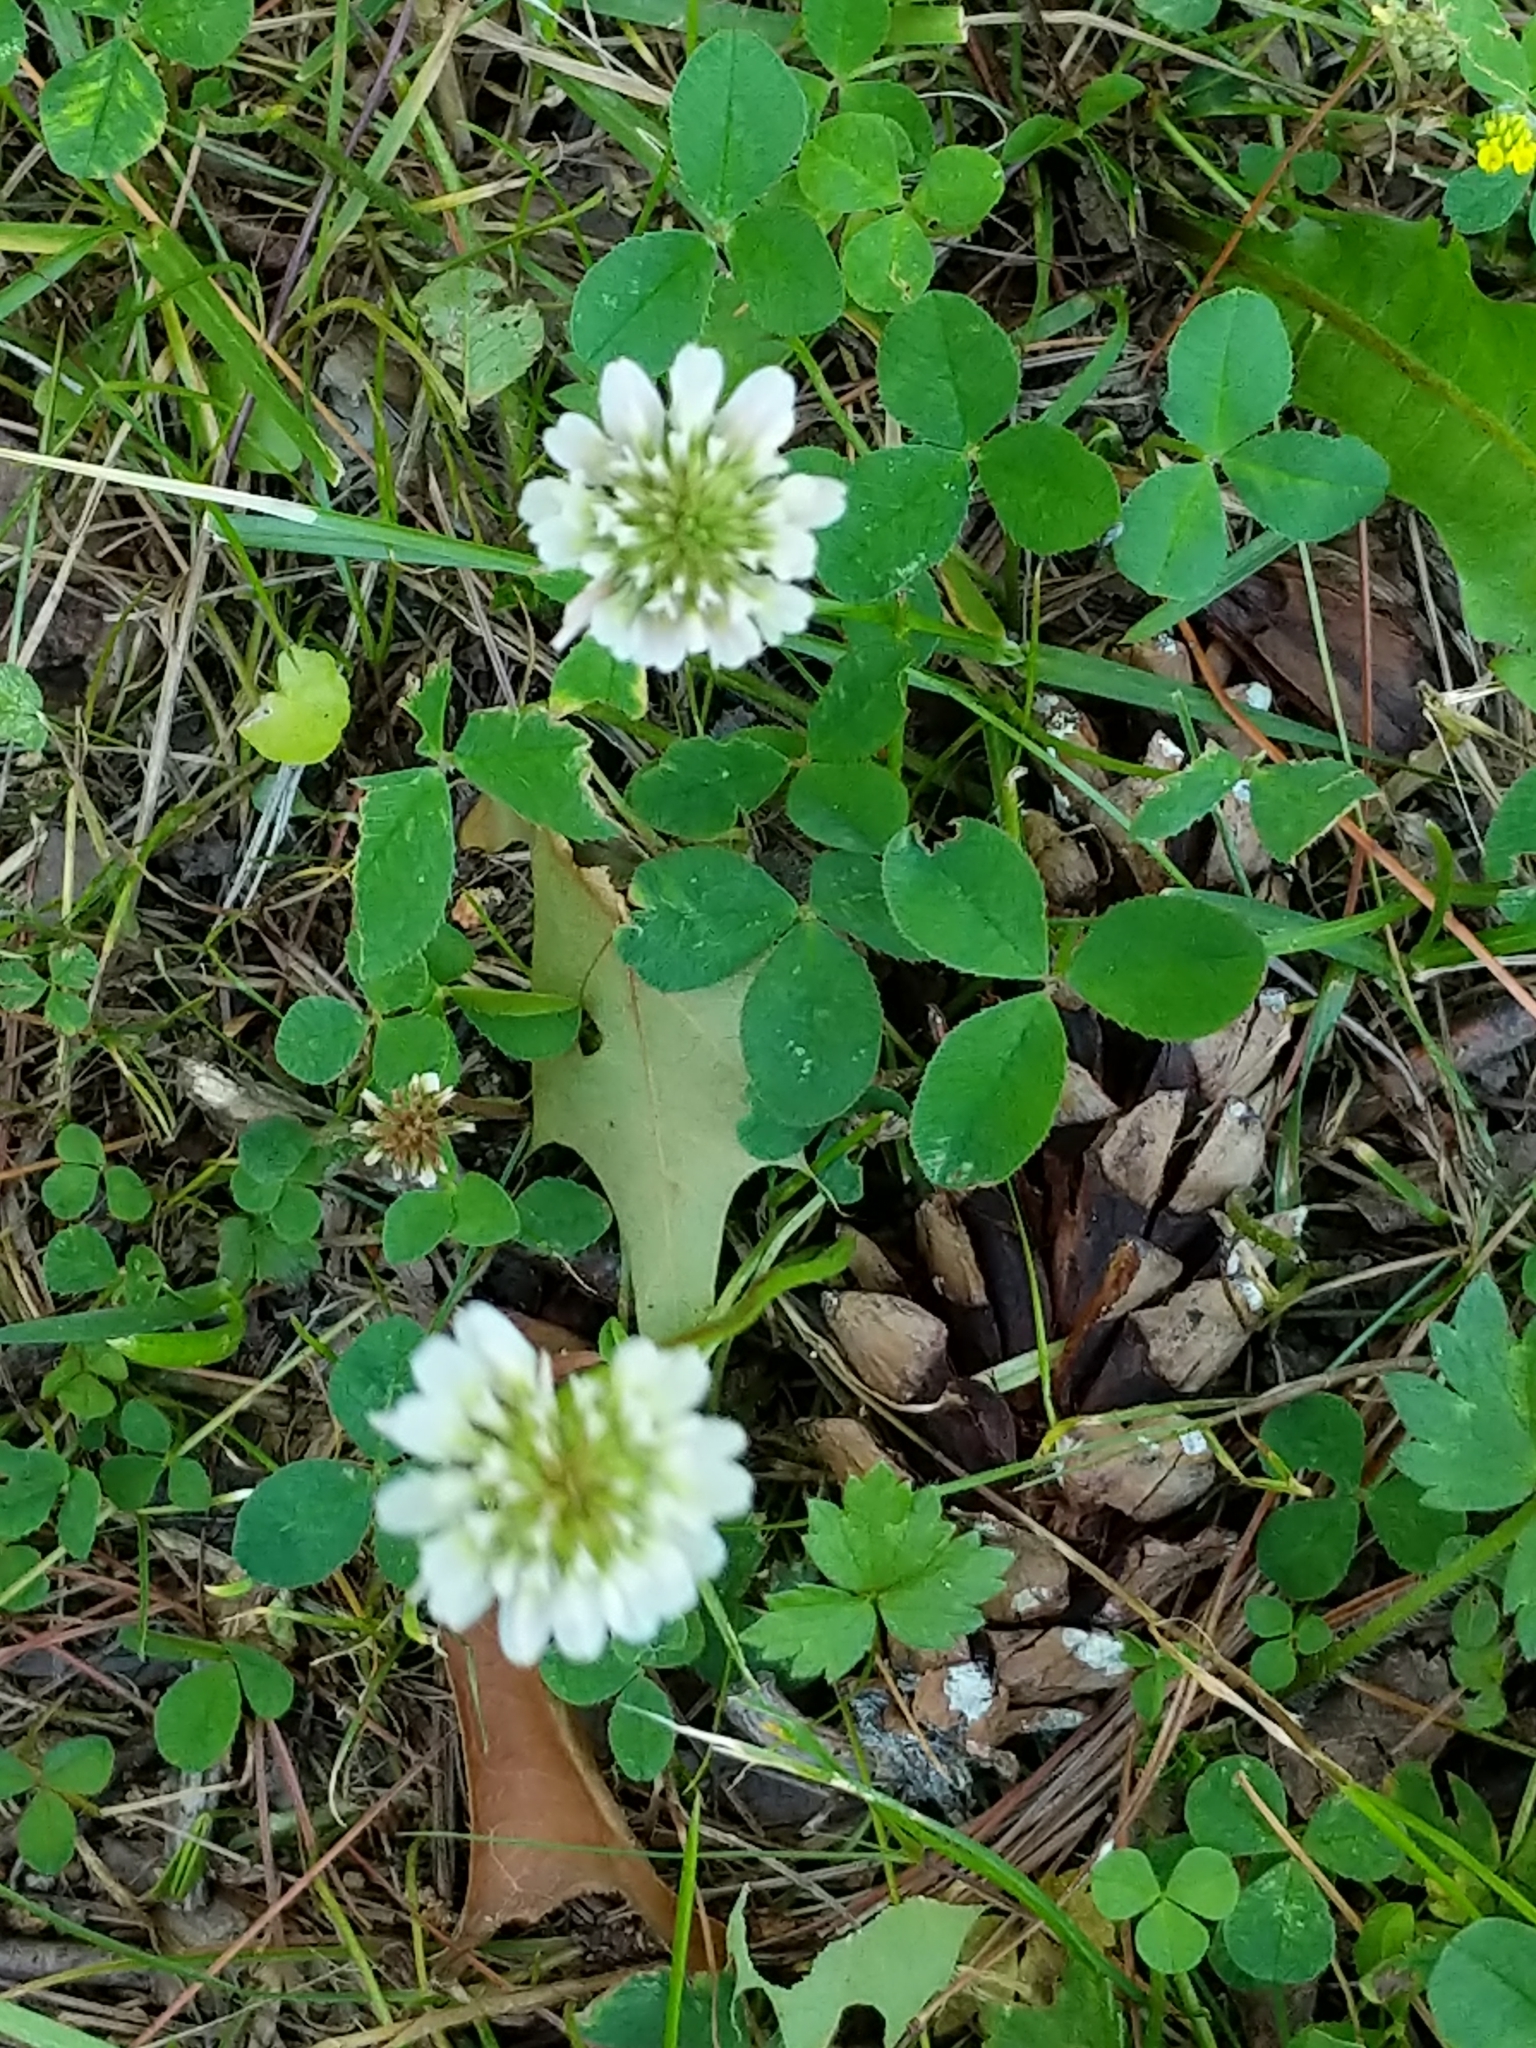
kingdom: Plantae
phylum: Tracheophyta
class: Magnoliopsida
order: Fabales
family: Fabaceae
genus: Trifolium
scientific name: Trifolium repens
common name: White clover
